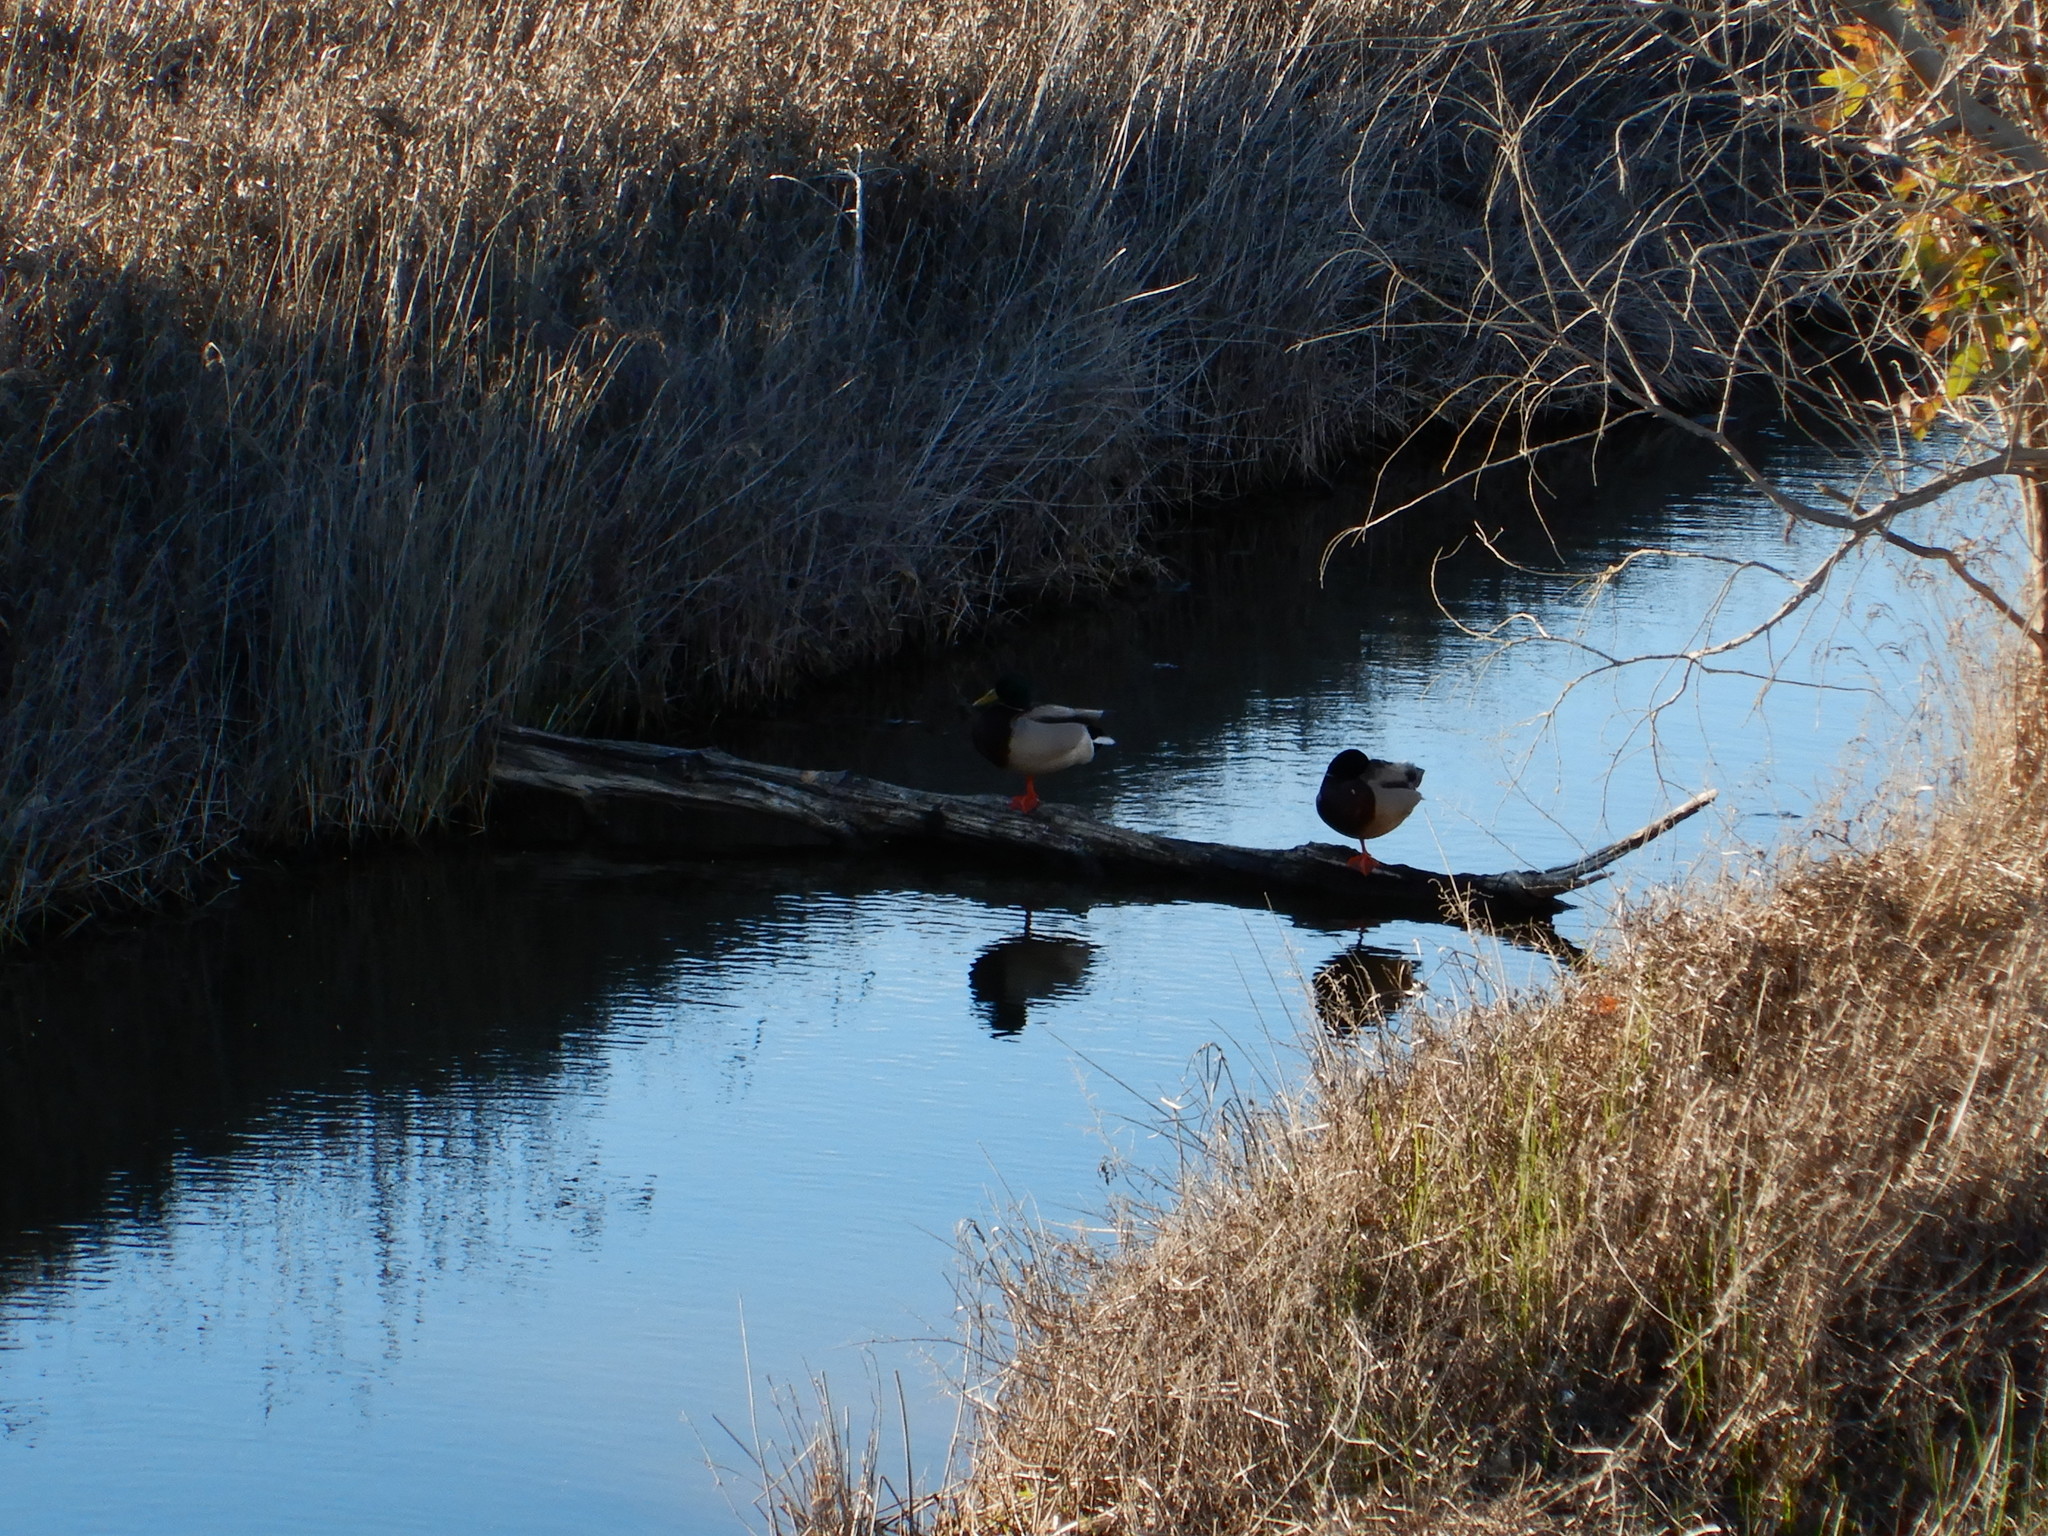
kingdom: Animalia
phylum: Chordata
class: Aves
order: Anseriformes
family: Anatidae
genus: Anas
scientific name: Anas platyrhynchos
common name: Mallard
